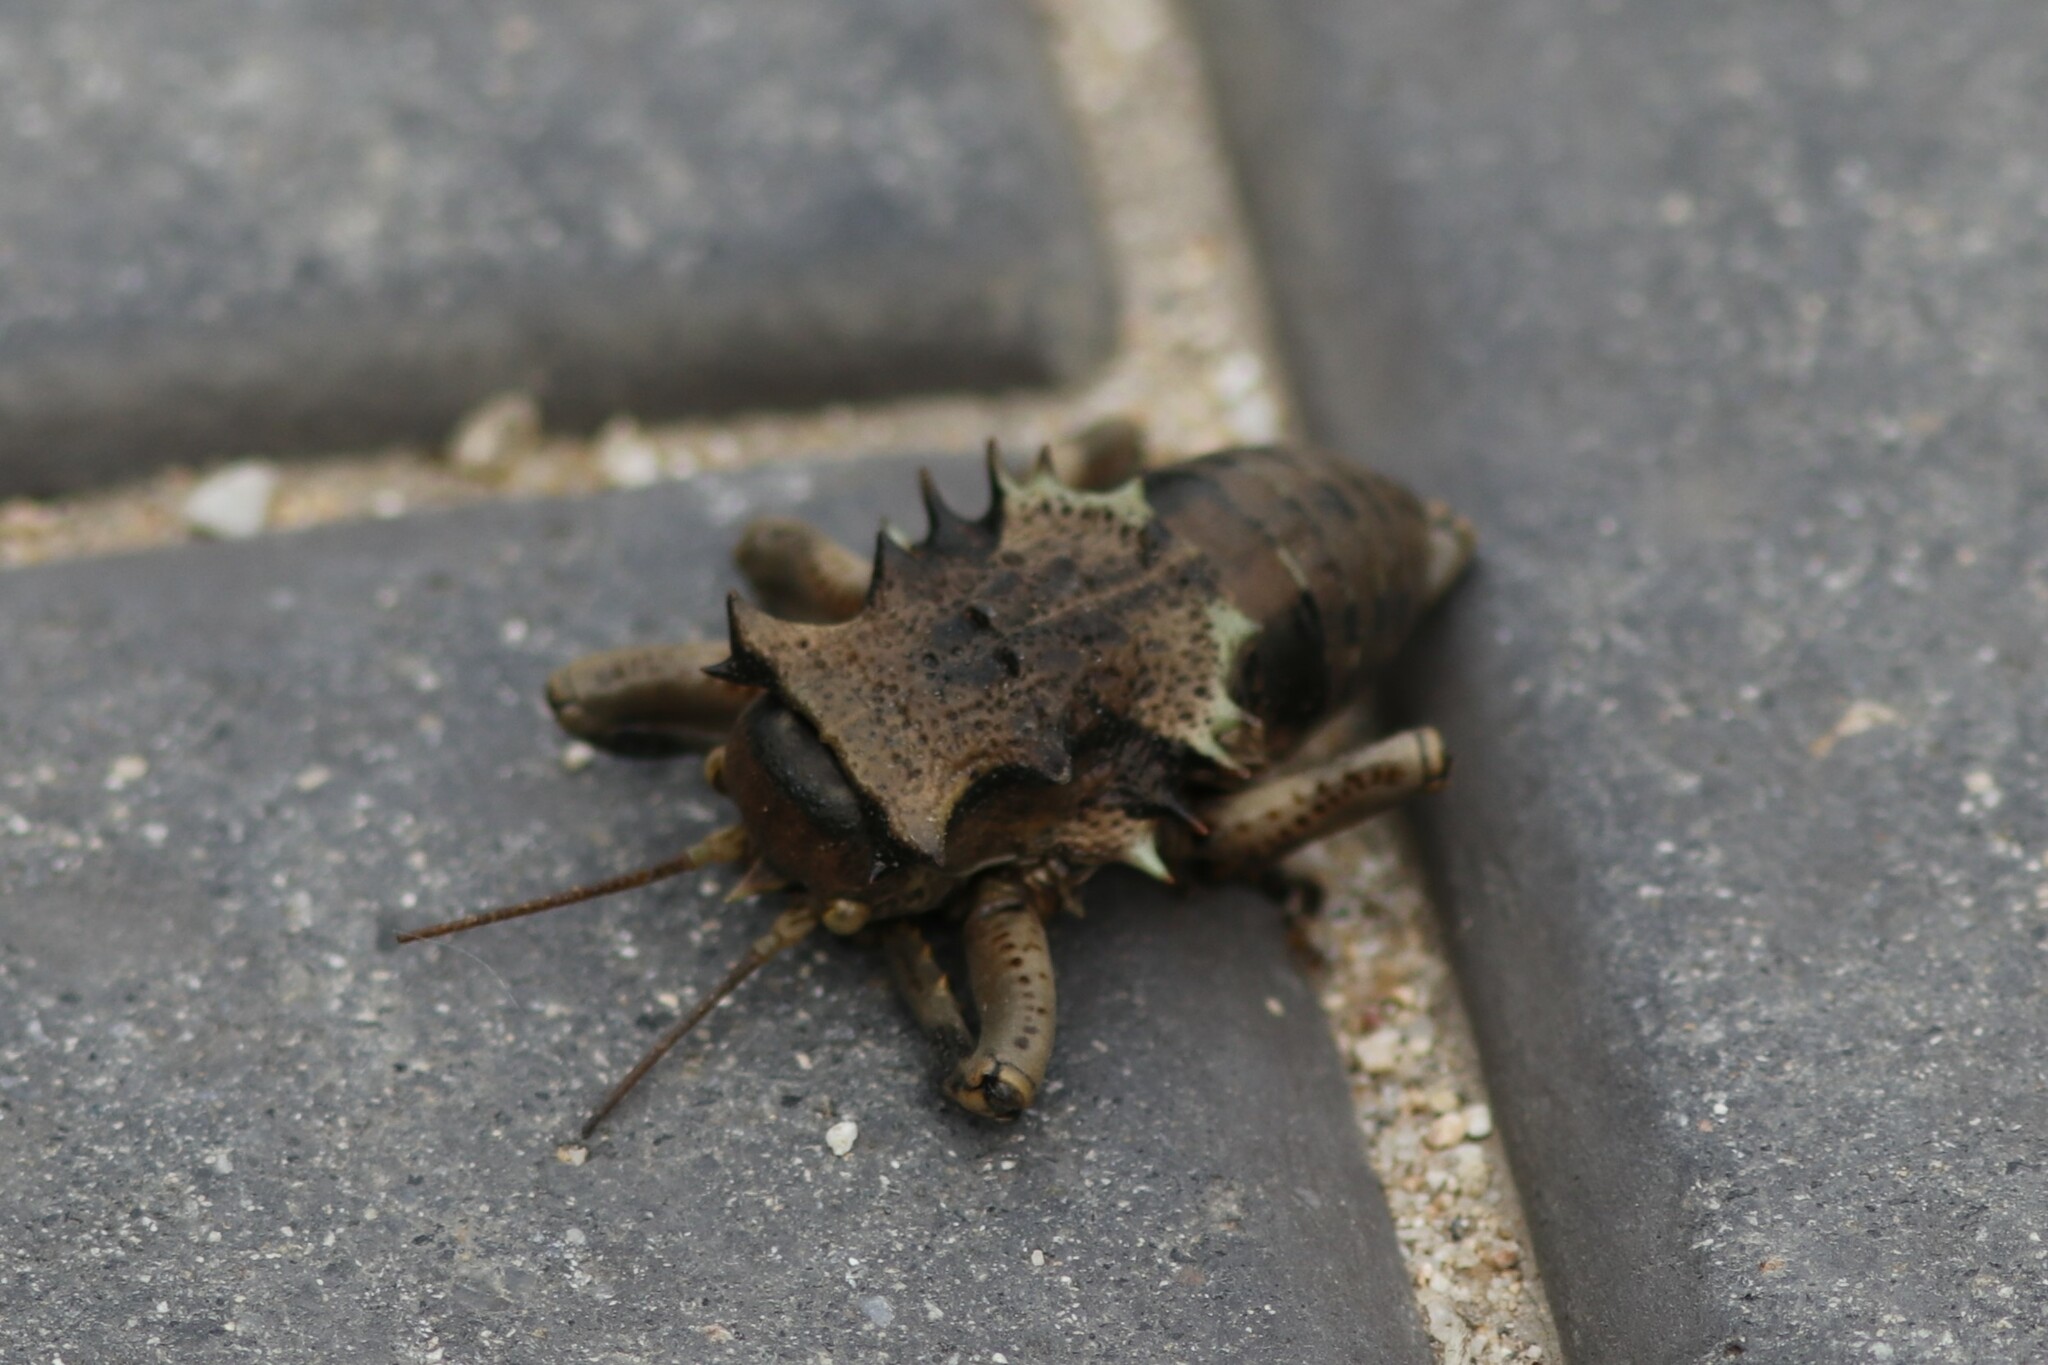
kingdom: Animalia
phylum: Arthropoda
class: Insecta
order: Orthoptera
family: Tettigoniidae
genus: Enyaliopsis
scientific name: Enyaliopsis transvaalensis
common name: Northern armoured katydid
